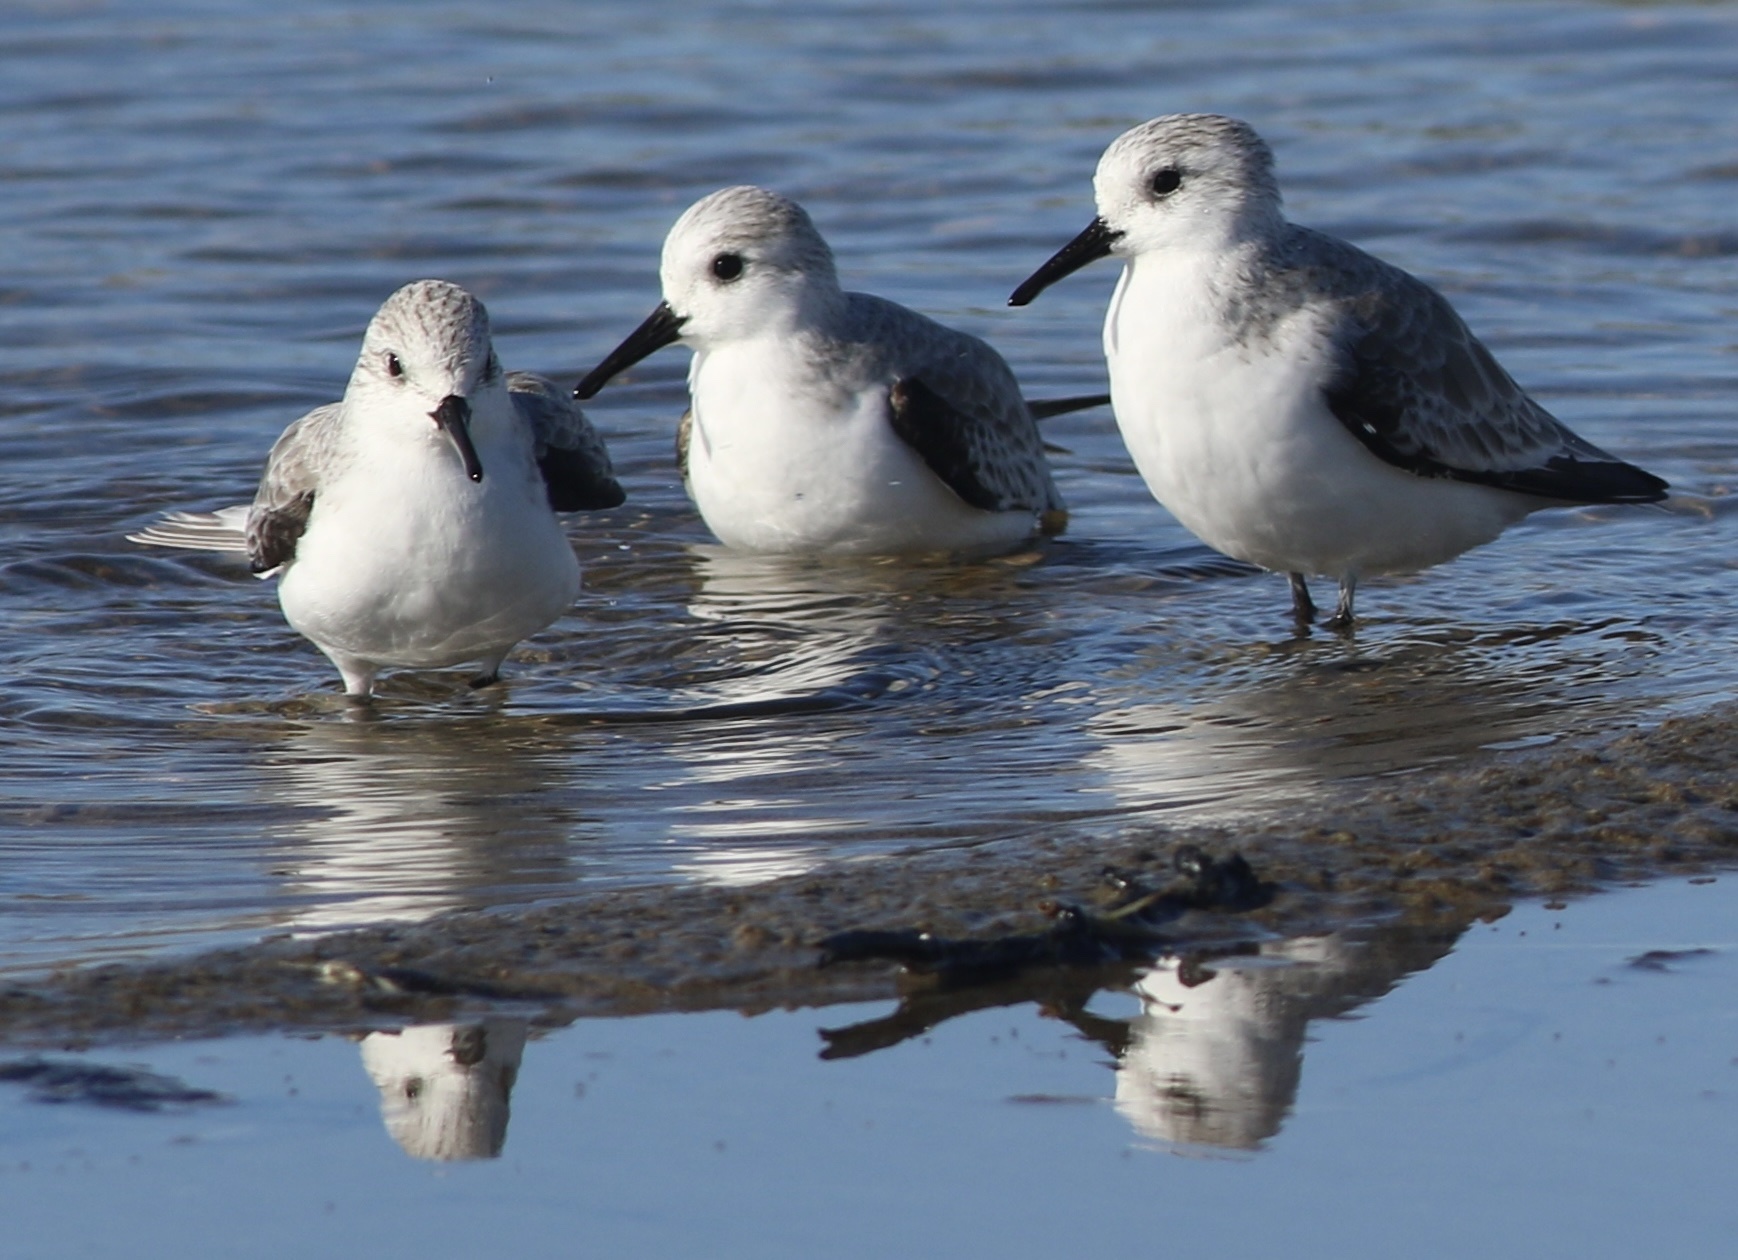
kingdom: Animalia
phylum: Chordata
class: Aves
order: Charadriiformes
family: Scolopacidae
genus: Calidris
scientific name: Calidris alba
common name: Sanderling
